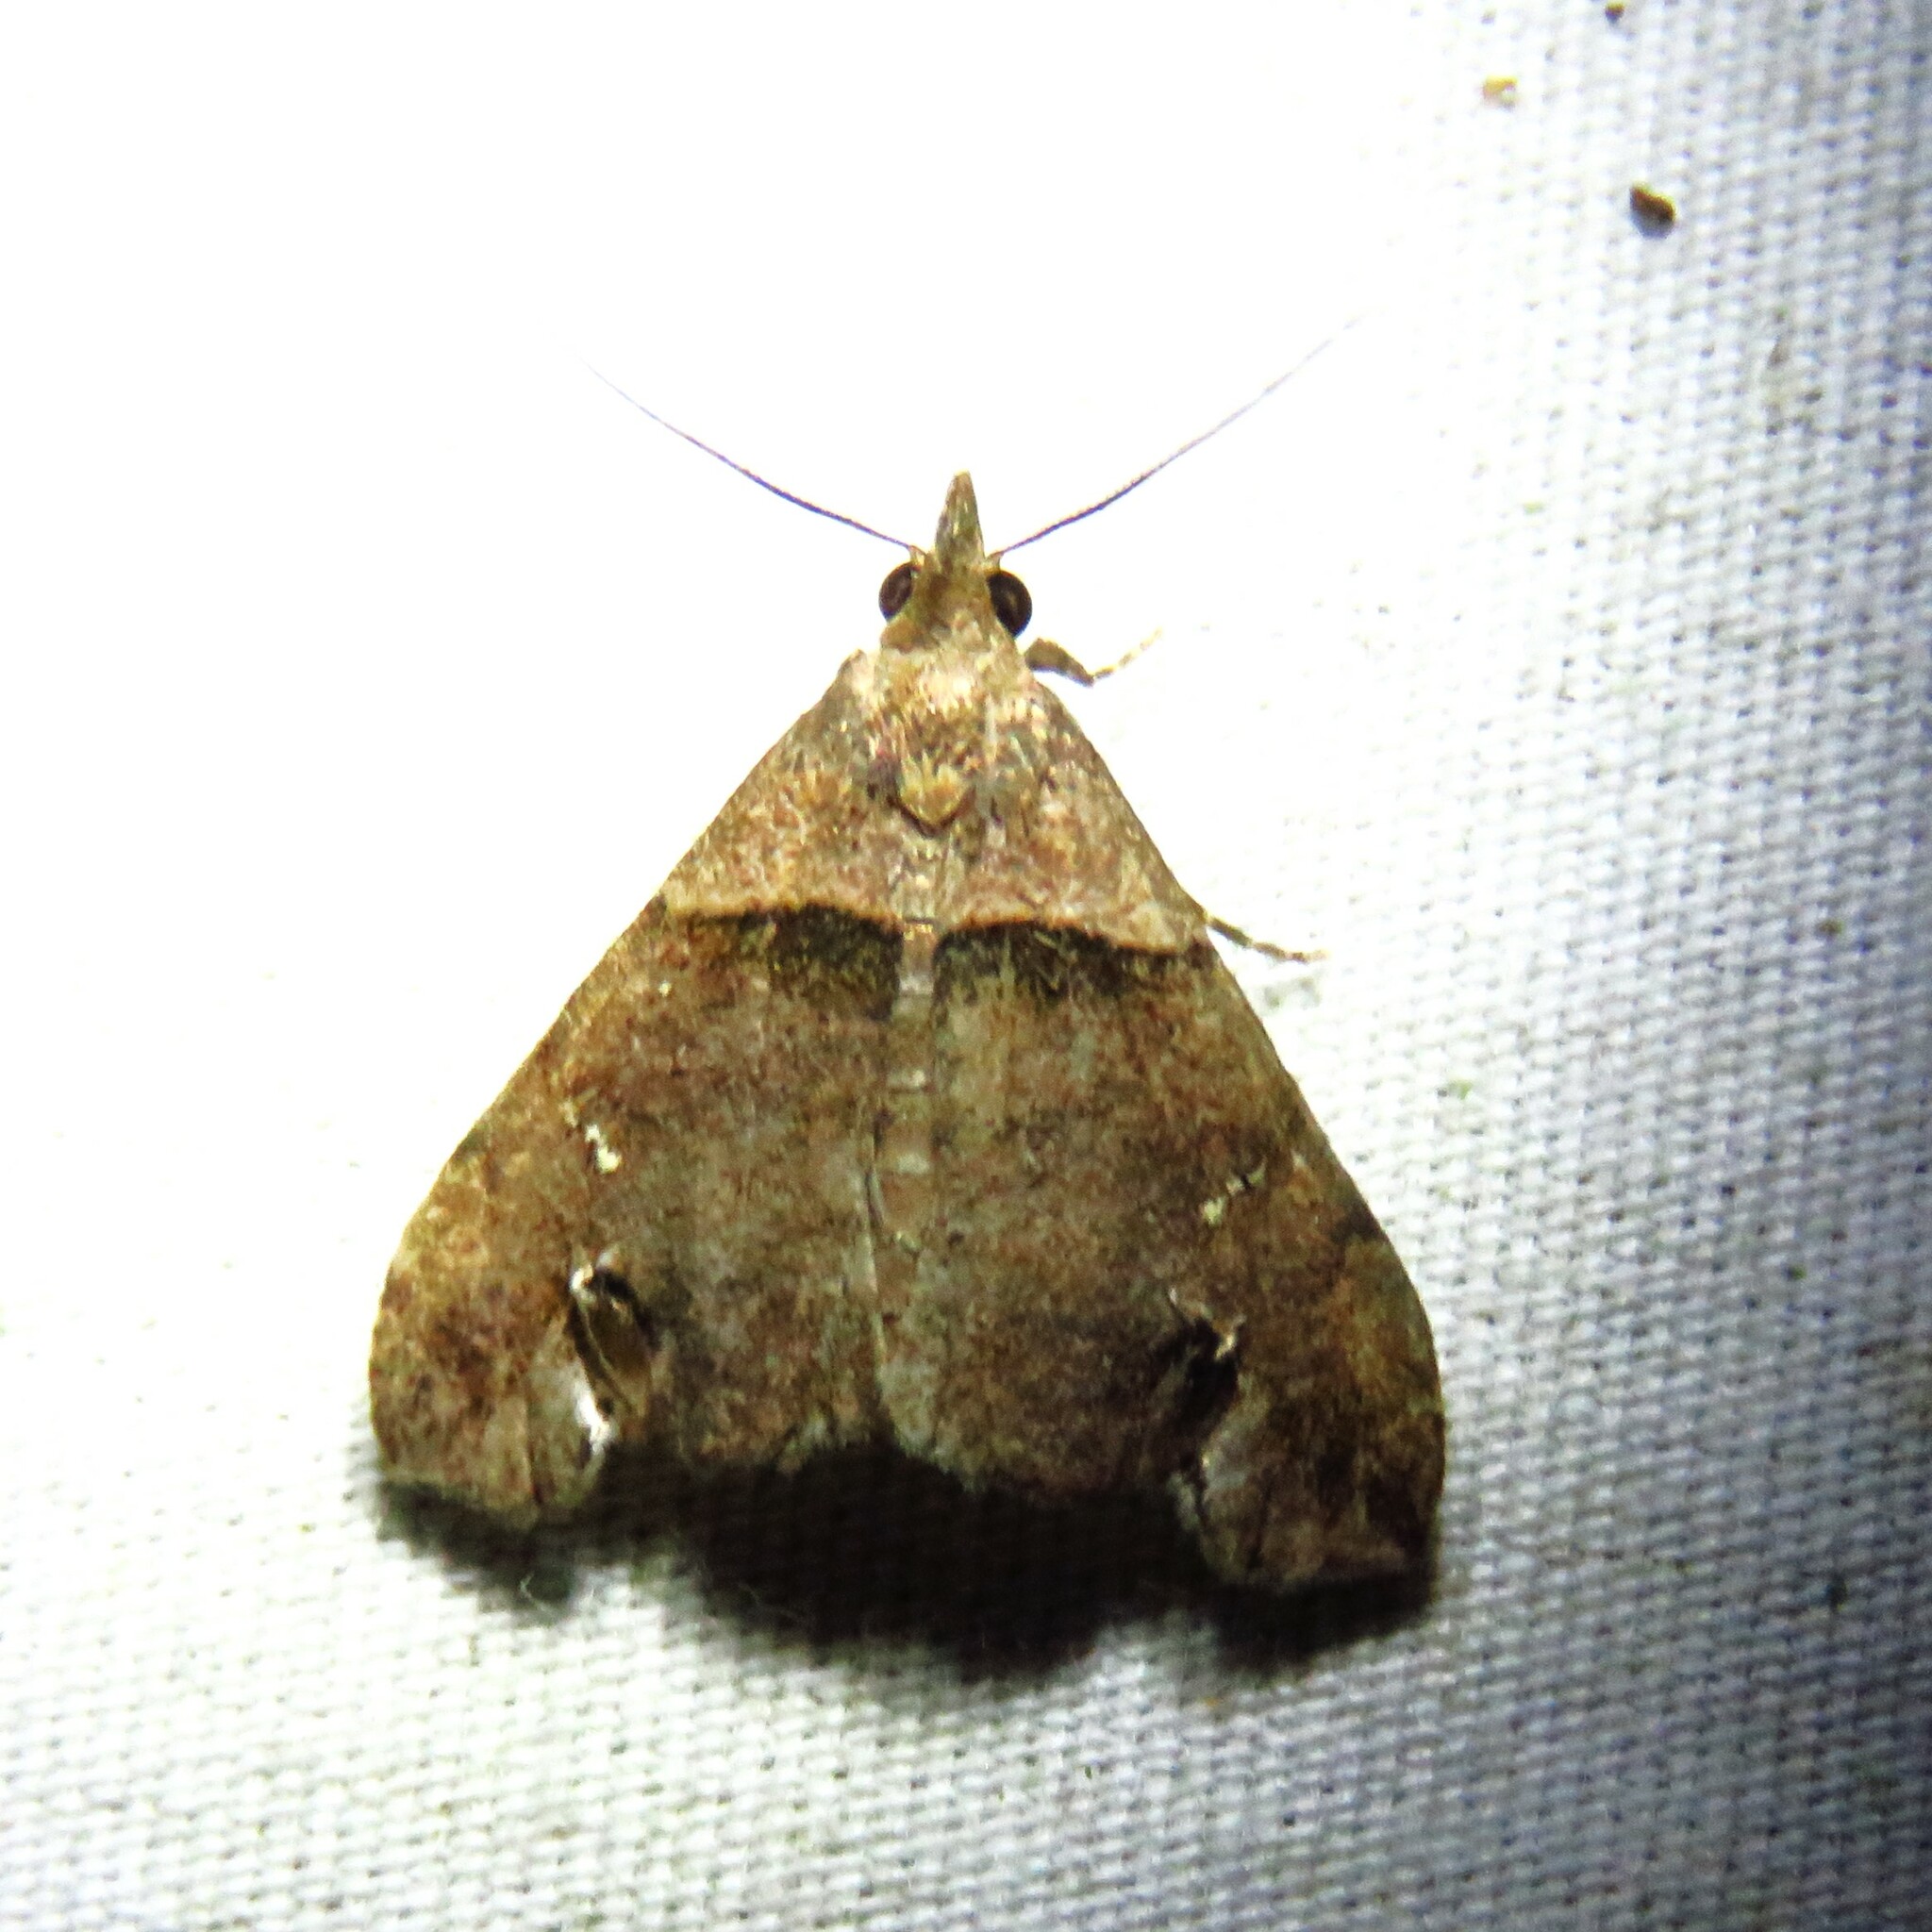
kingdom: Animalia
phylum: Arthropoda
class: Insecta
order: Lepidoptera
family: Erebidae
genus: Lascoria
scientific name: Lascoria ambigualis
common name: Ambiguous moth
